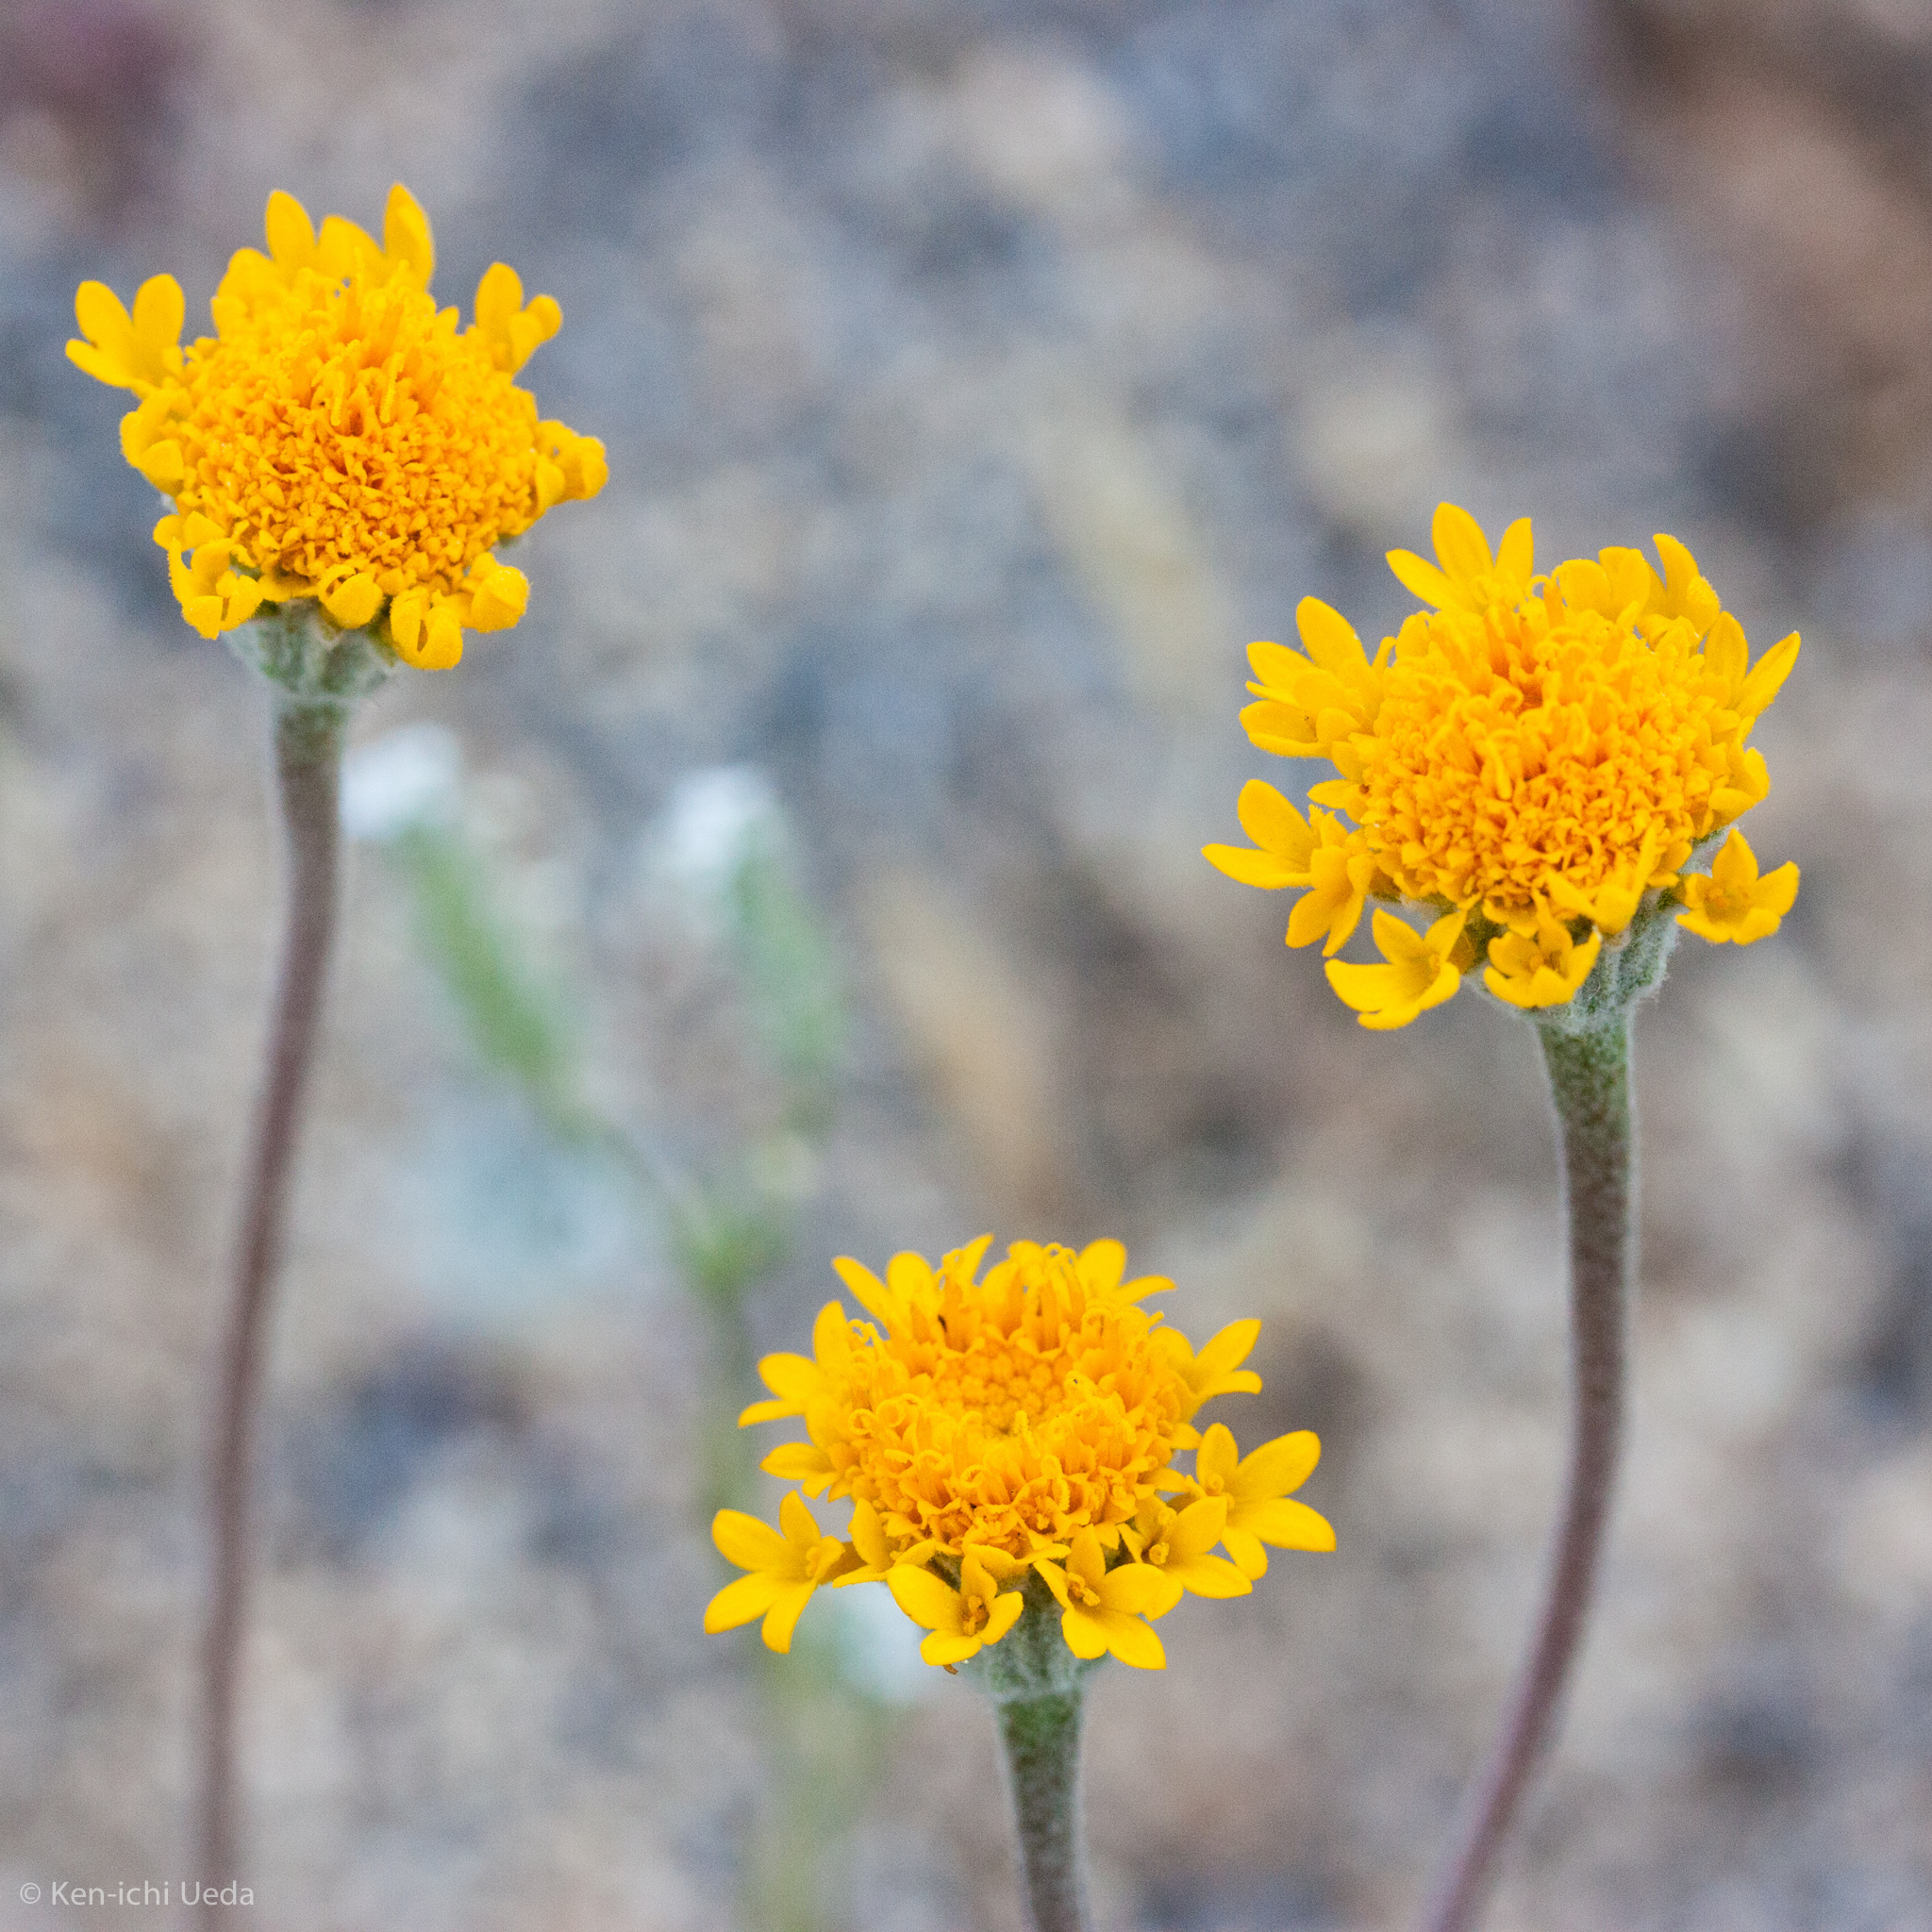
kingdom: Plantae
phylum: Tracheophyta
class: Magnoliopsida
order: Asterales
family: Asteraceae
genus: Chaenactis
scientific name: Chaenactis glabriuscula
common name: Yellow pincushion
